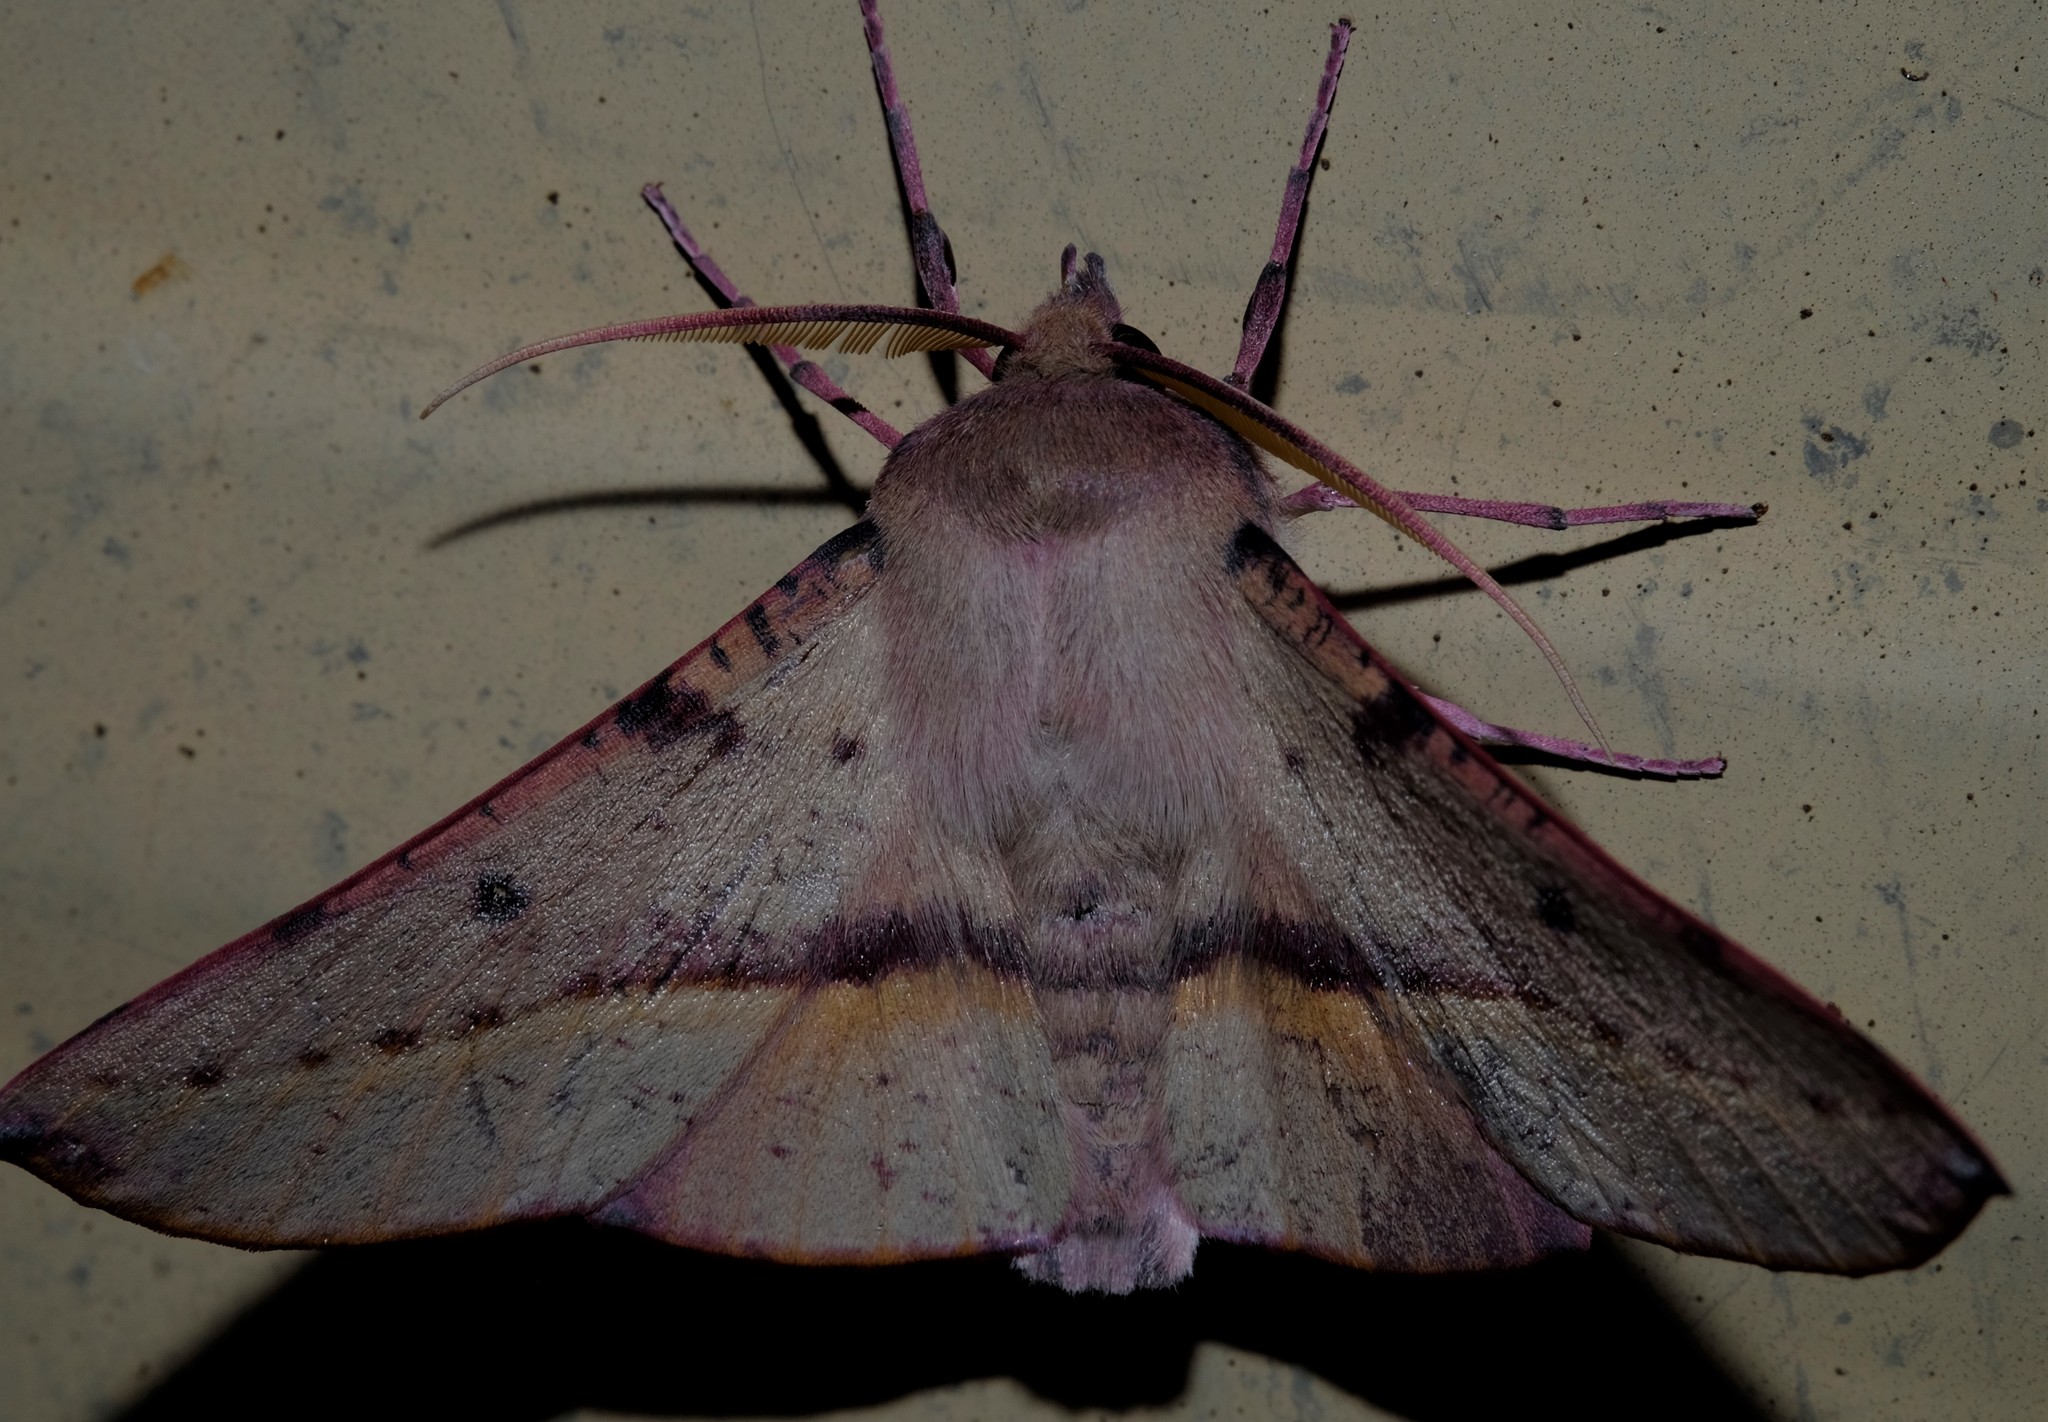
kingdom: Animalia
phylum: Arthropoda
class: Insecta
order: Lepidoptera
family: Geometridae
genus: Oenochroma
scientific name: Oenochroma vinaria
